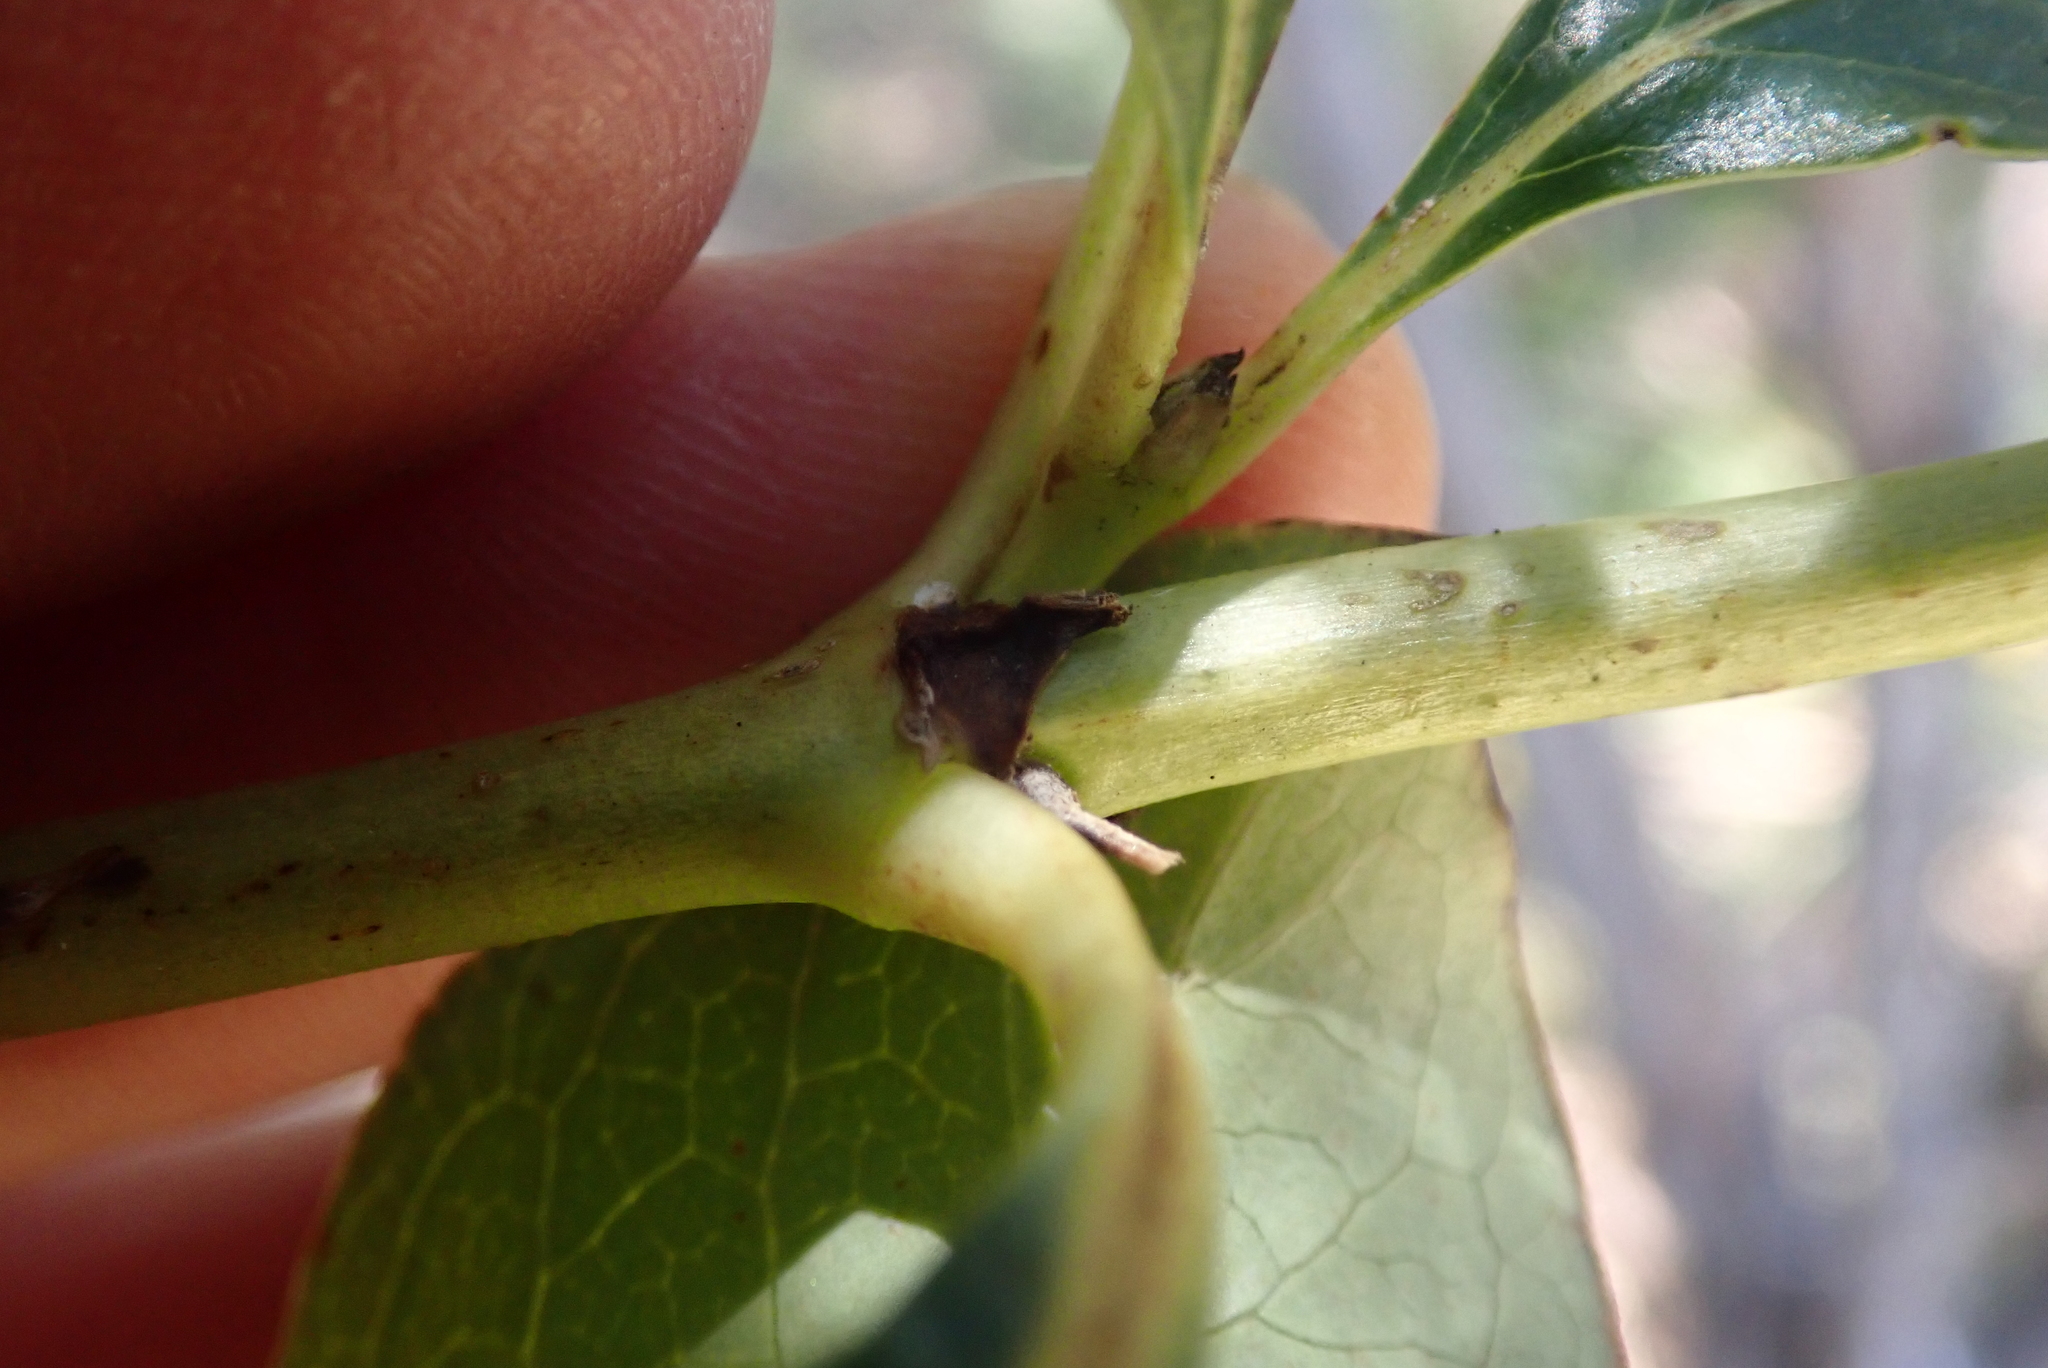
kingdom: Plantae
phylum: Tracheophyta
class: Magnoliopsida
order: Gentianales
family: Rubiaceae
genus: Coprosma
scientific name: Coprosma robusta
